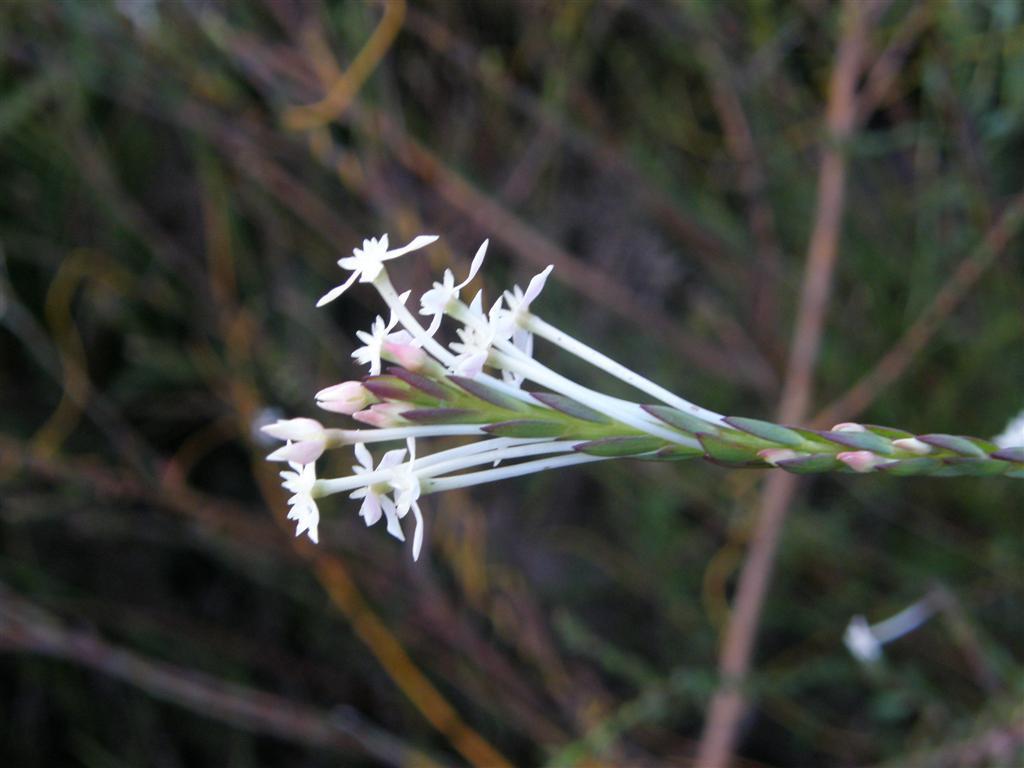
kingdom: Plantae
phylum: Tracheophyta
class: Magnoliopsida
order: Malvales
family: Thymelaeaceae
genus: Struthiola
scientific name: Struthiola myrsinites
